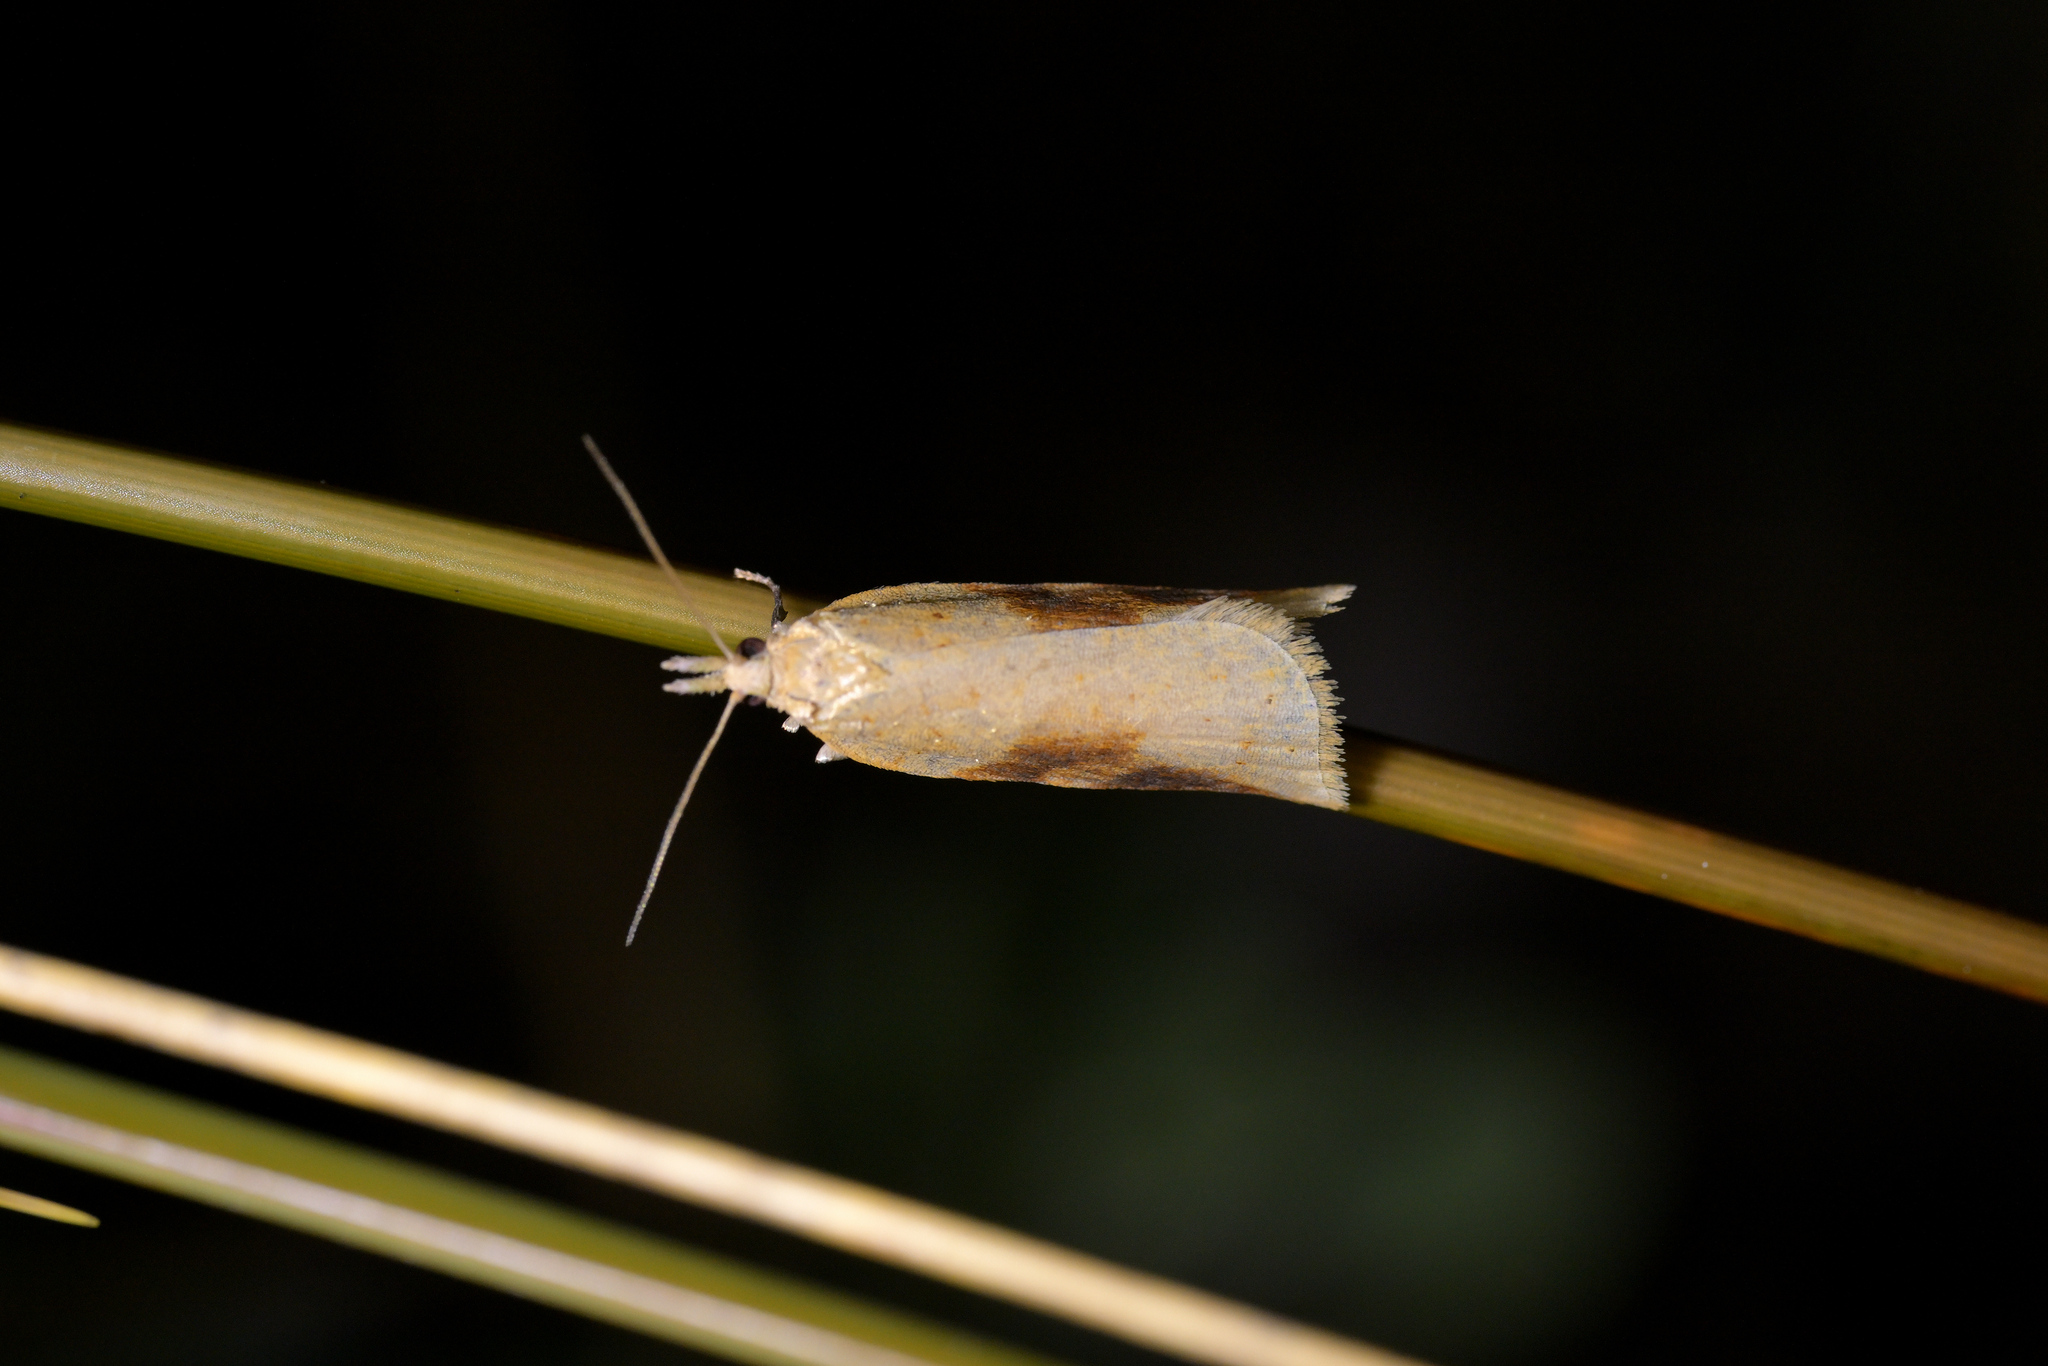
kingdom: Animalia
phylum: Arthropoda
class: Insecta
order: Lepidoptera
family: Tortricidae
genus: Apoctena
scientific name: Apoctena conditana
